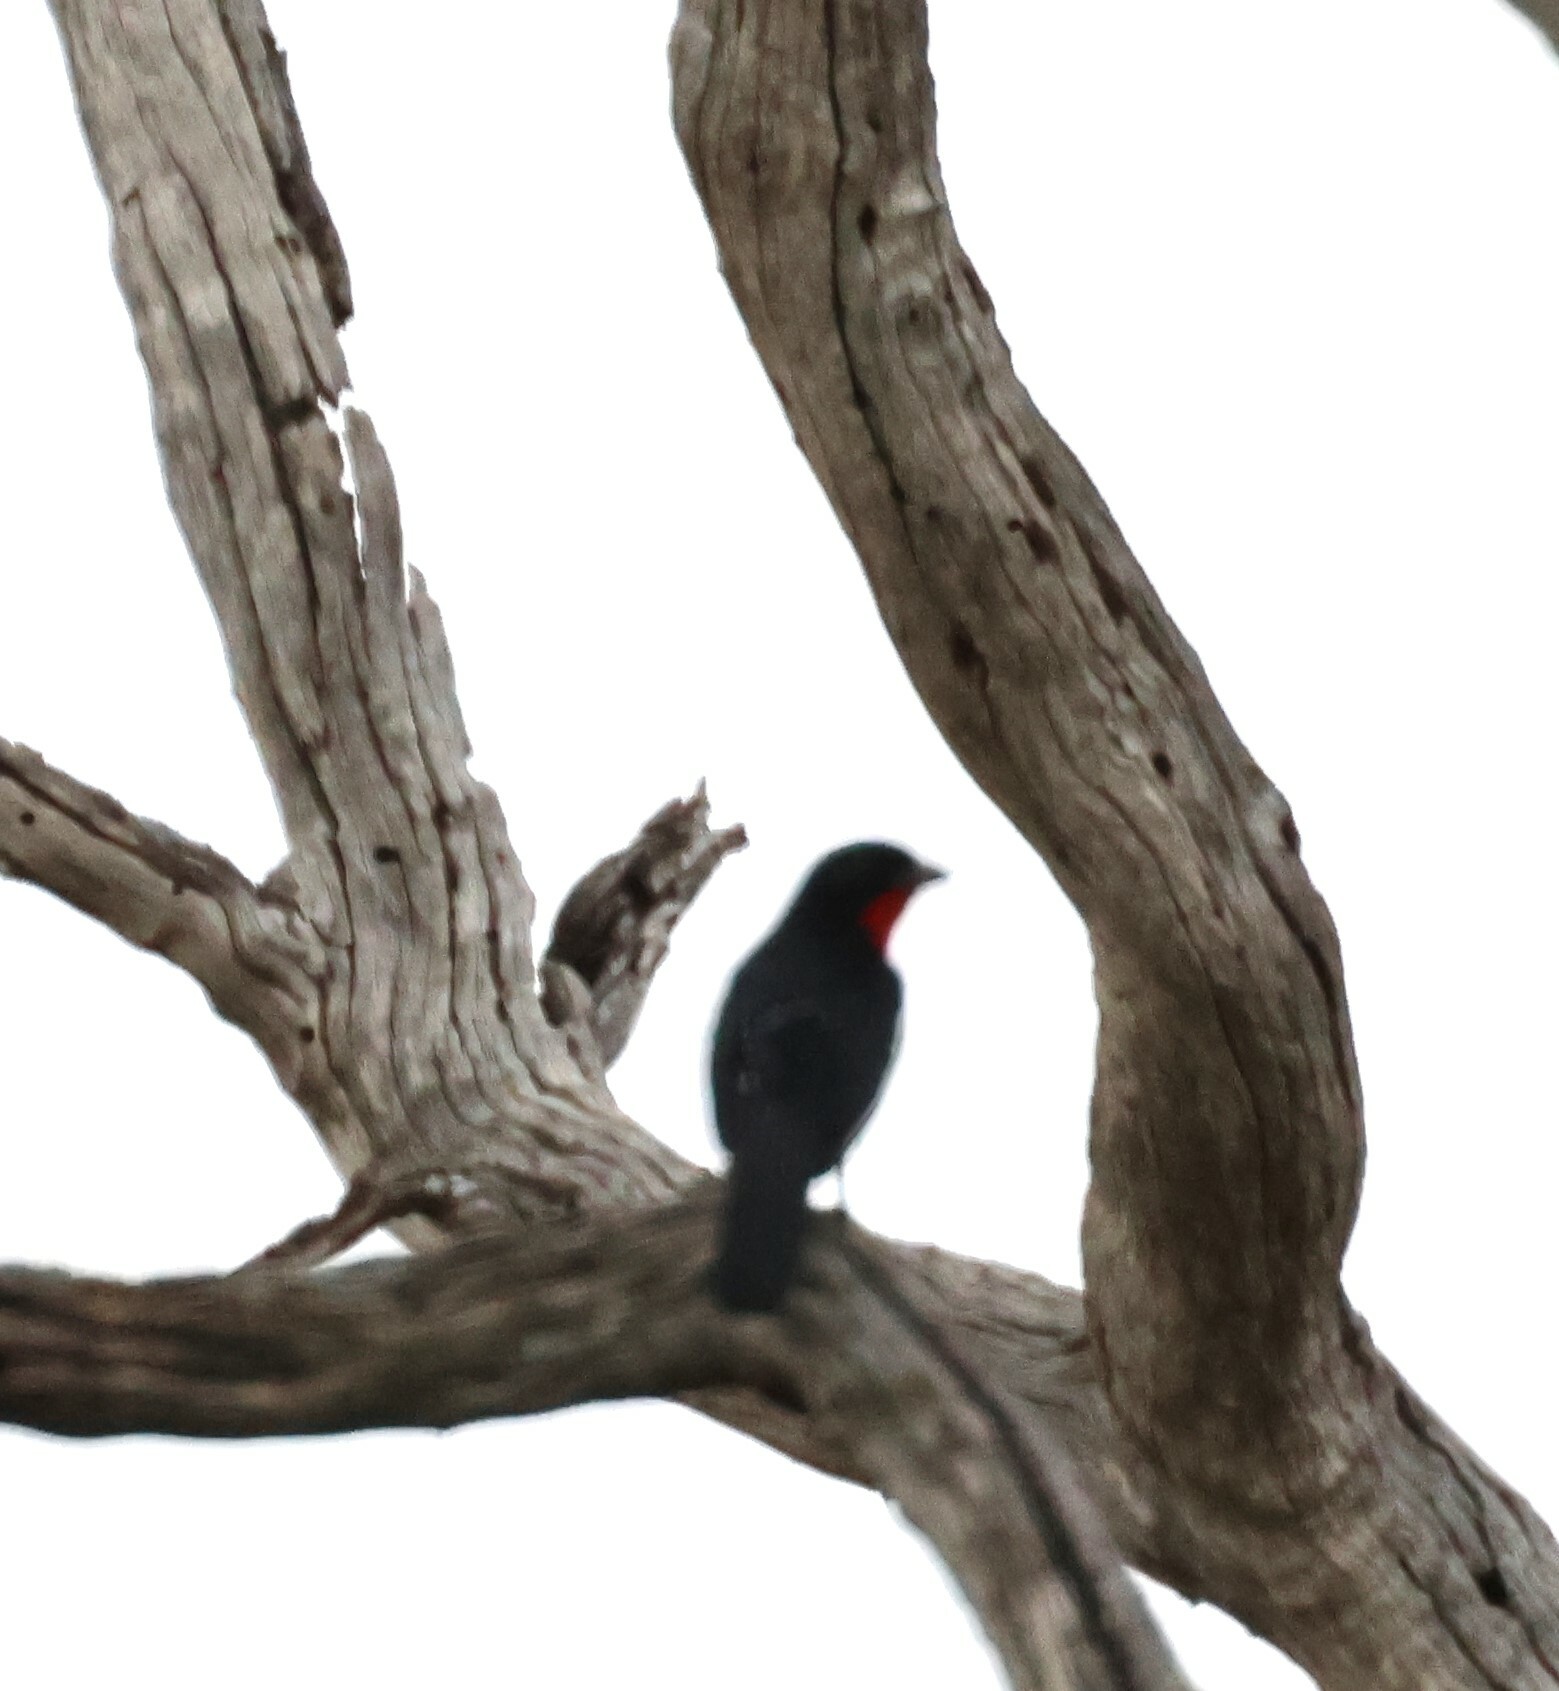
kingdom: Animalia
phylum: Chordata
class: Aves
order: Passeriformes
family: Malaconotidae
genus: Laniarius
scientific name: Laniarius atrococcineus
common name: Crimson-breasted shrike
